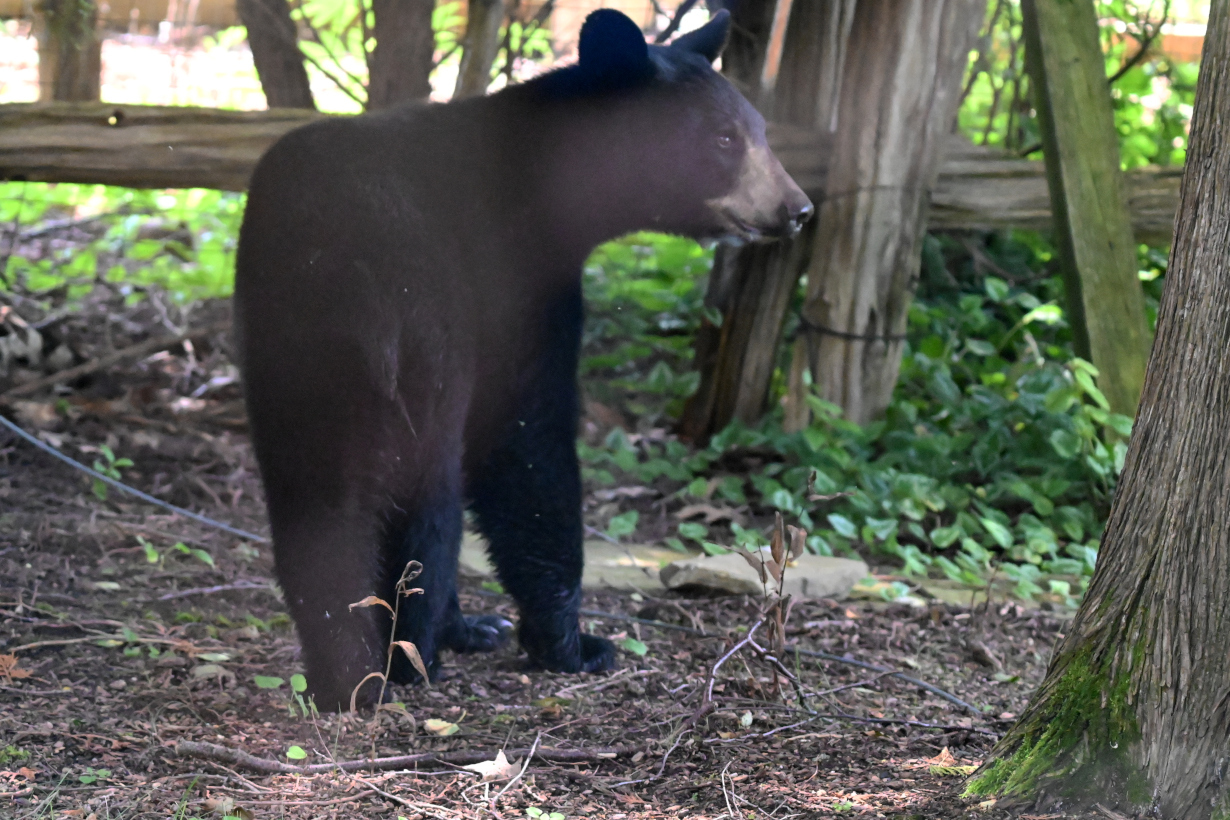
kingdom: Animalia
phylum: Chordata
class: Mammalia
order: Carnivora
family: Ursidae
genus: Ursus
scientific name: Ursus americanus
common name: American black bear
